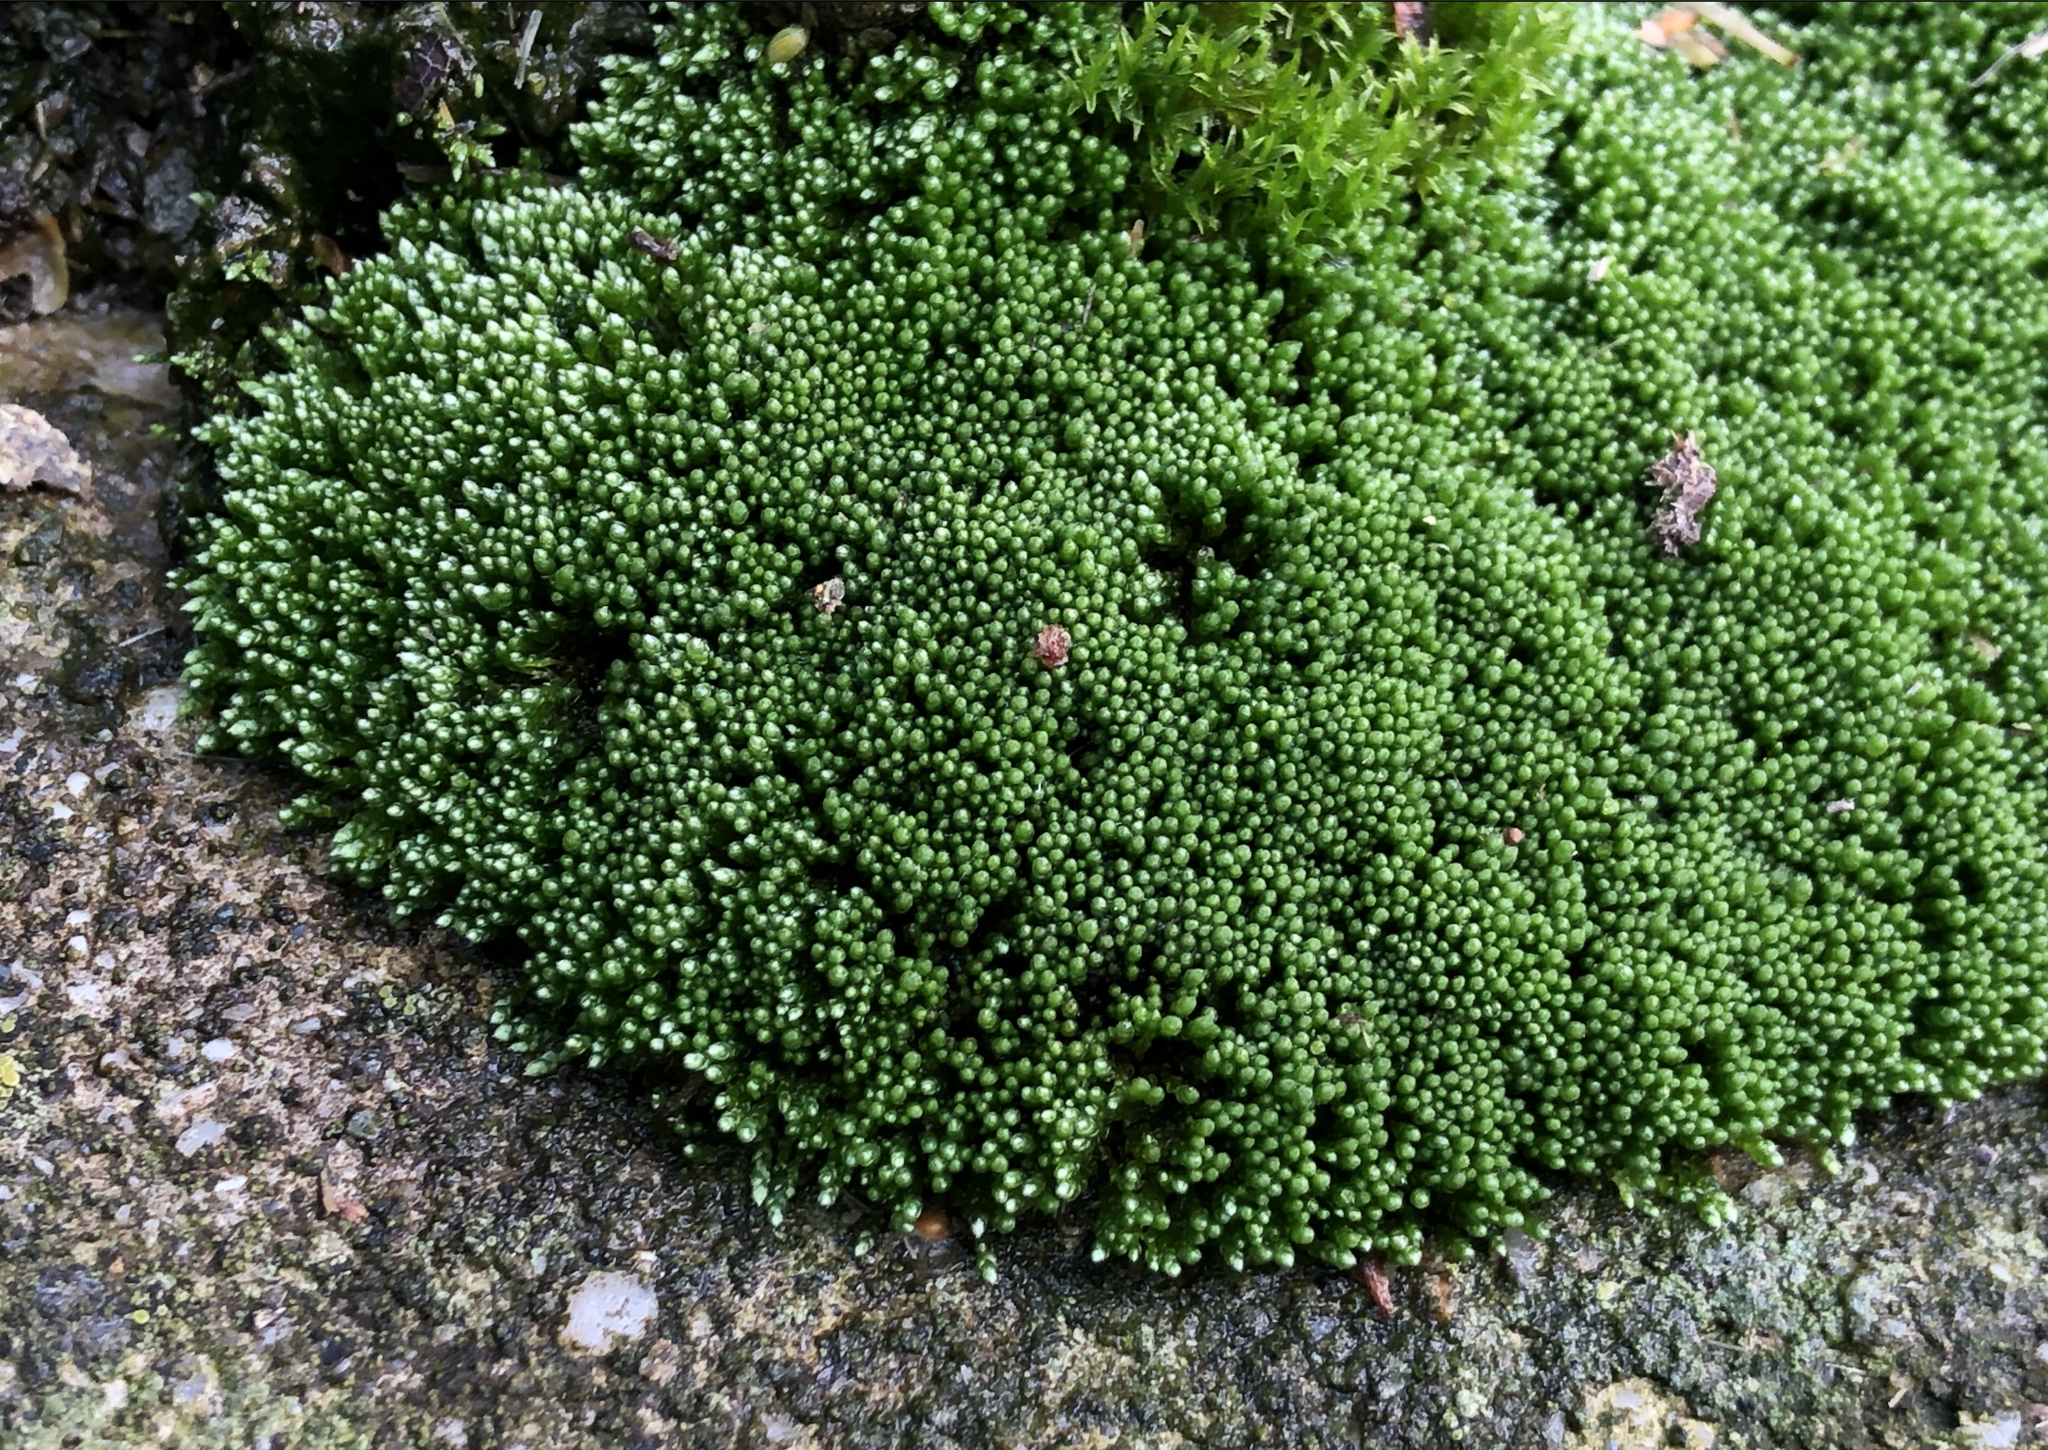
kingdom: Plantae
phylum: Bryophyta
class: Bryopsida
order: Bryales
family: Bryaceae
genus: Bryum
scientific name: Bryum argenteum
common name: Silver-moss
